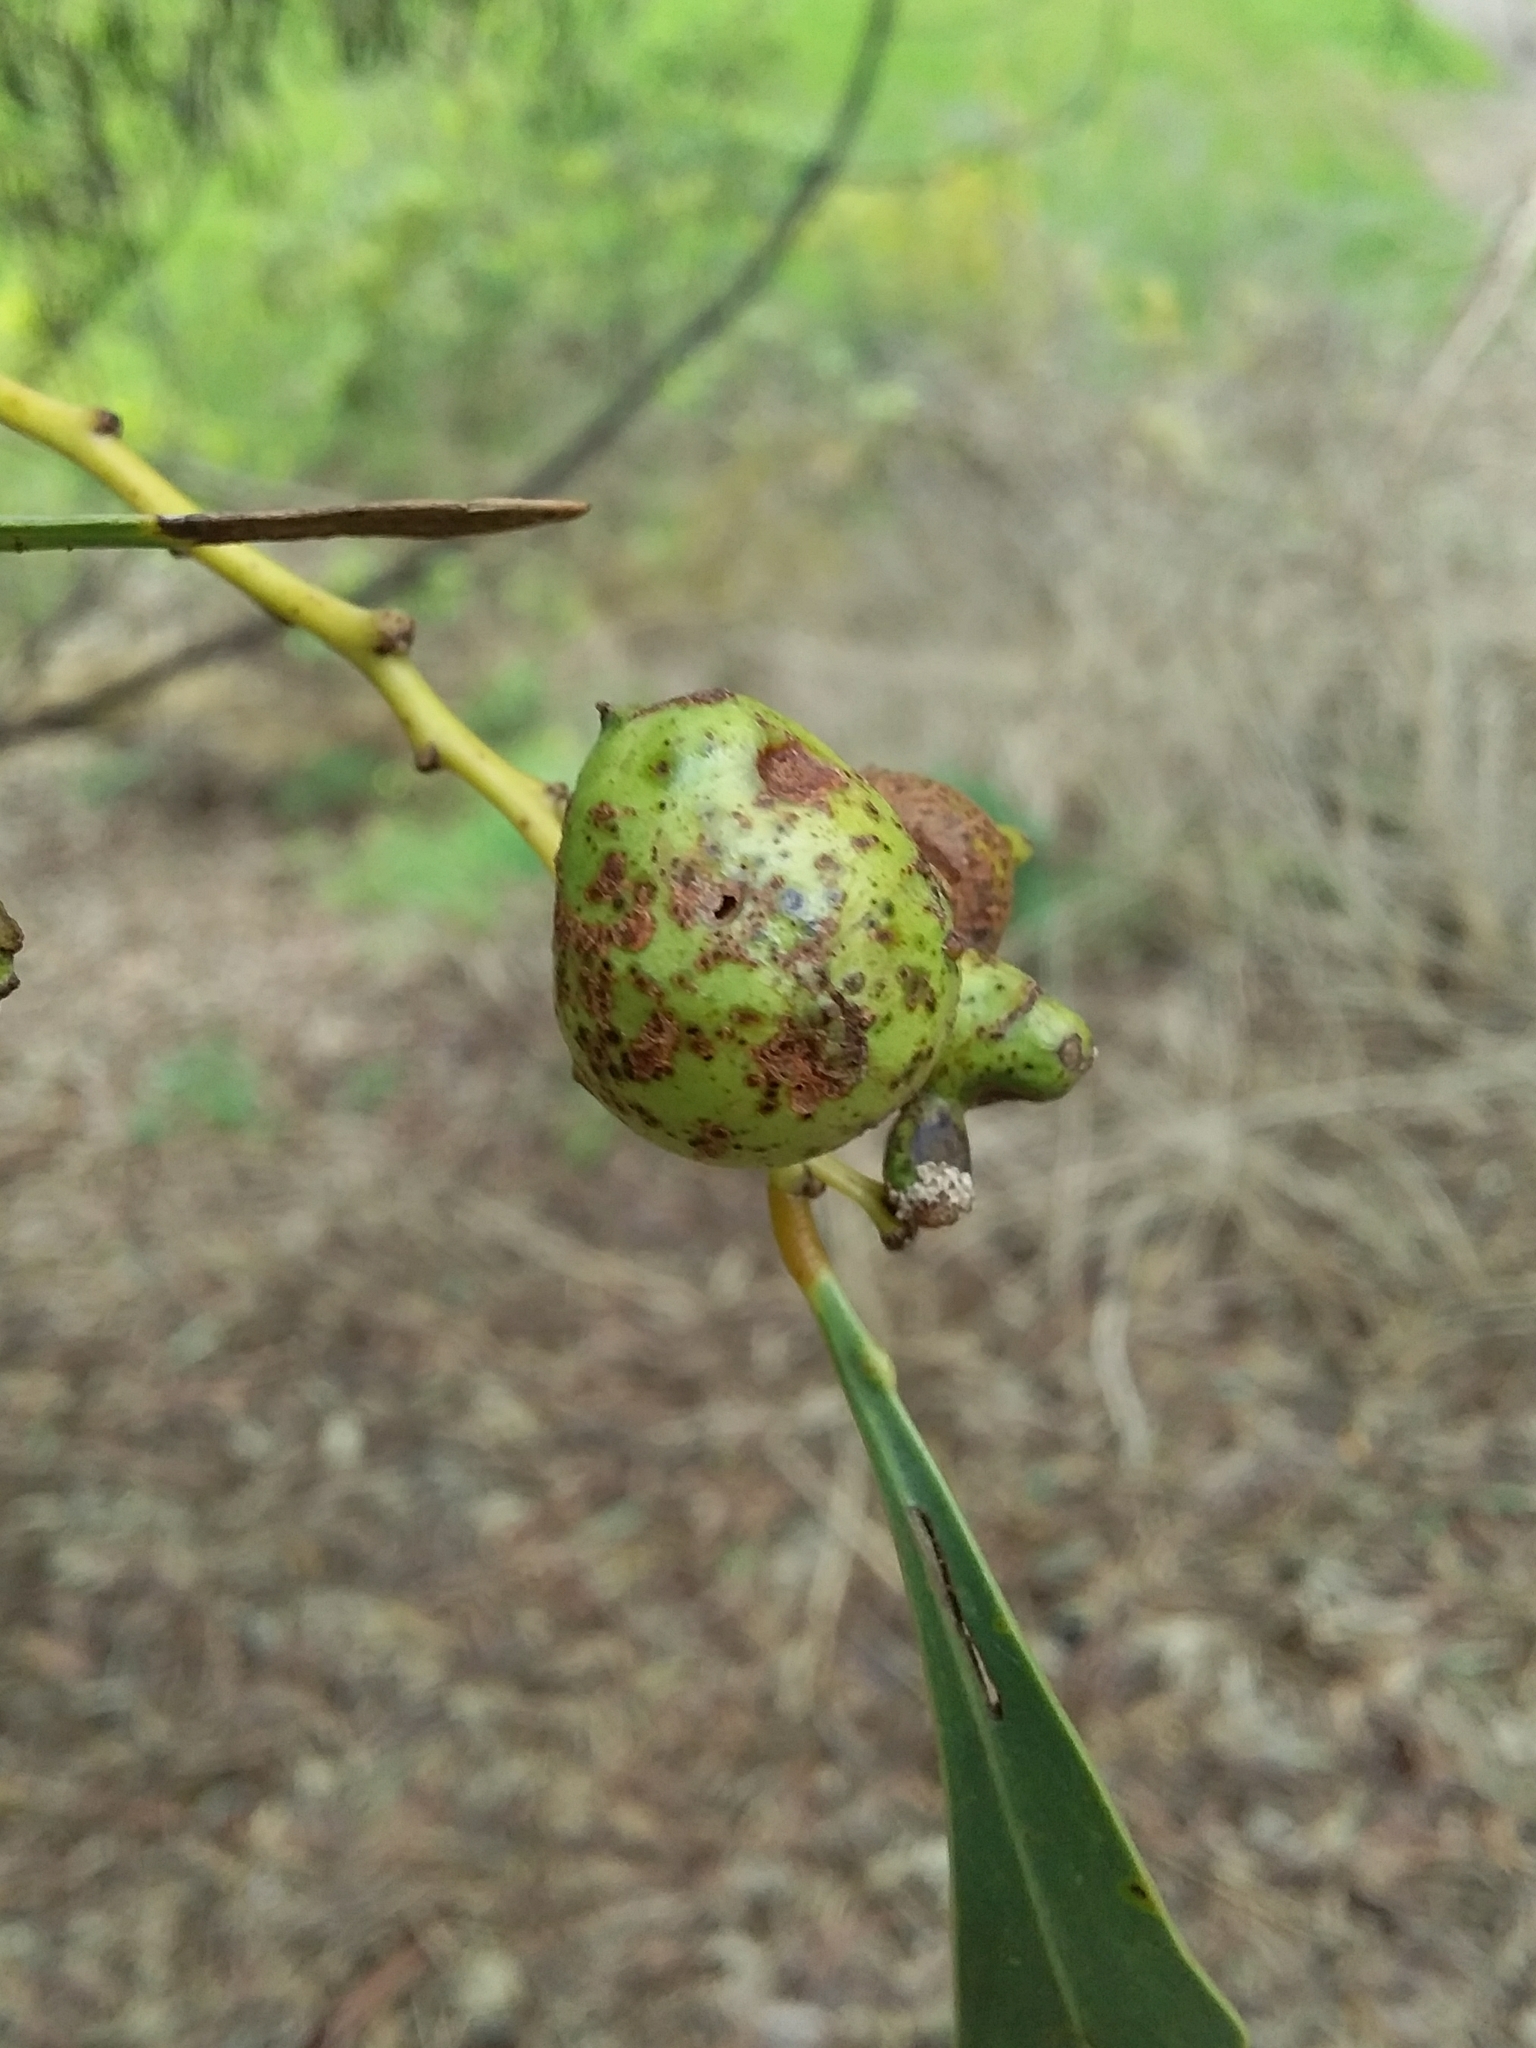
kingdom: Animalia
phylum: Arthropoda
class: Insecta
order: Hymenoptera
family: Pteromalidae
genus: Trichilogaster
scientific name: Trichilogaster signiventris
